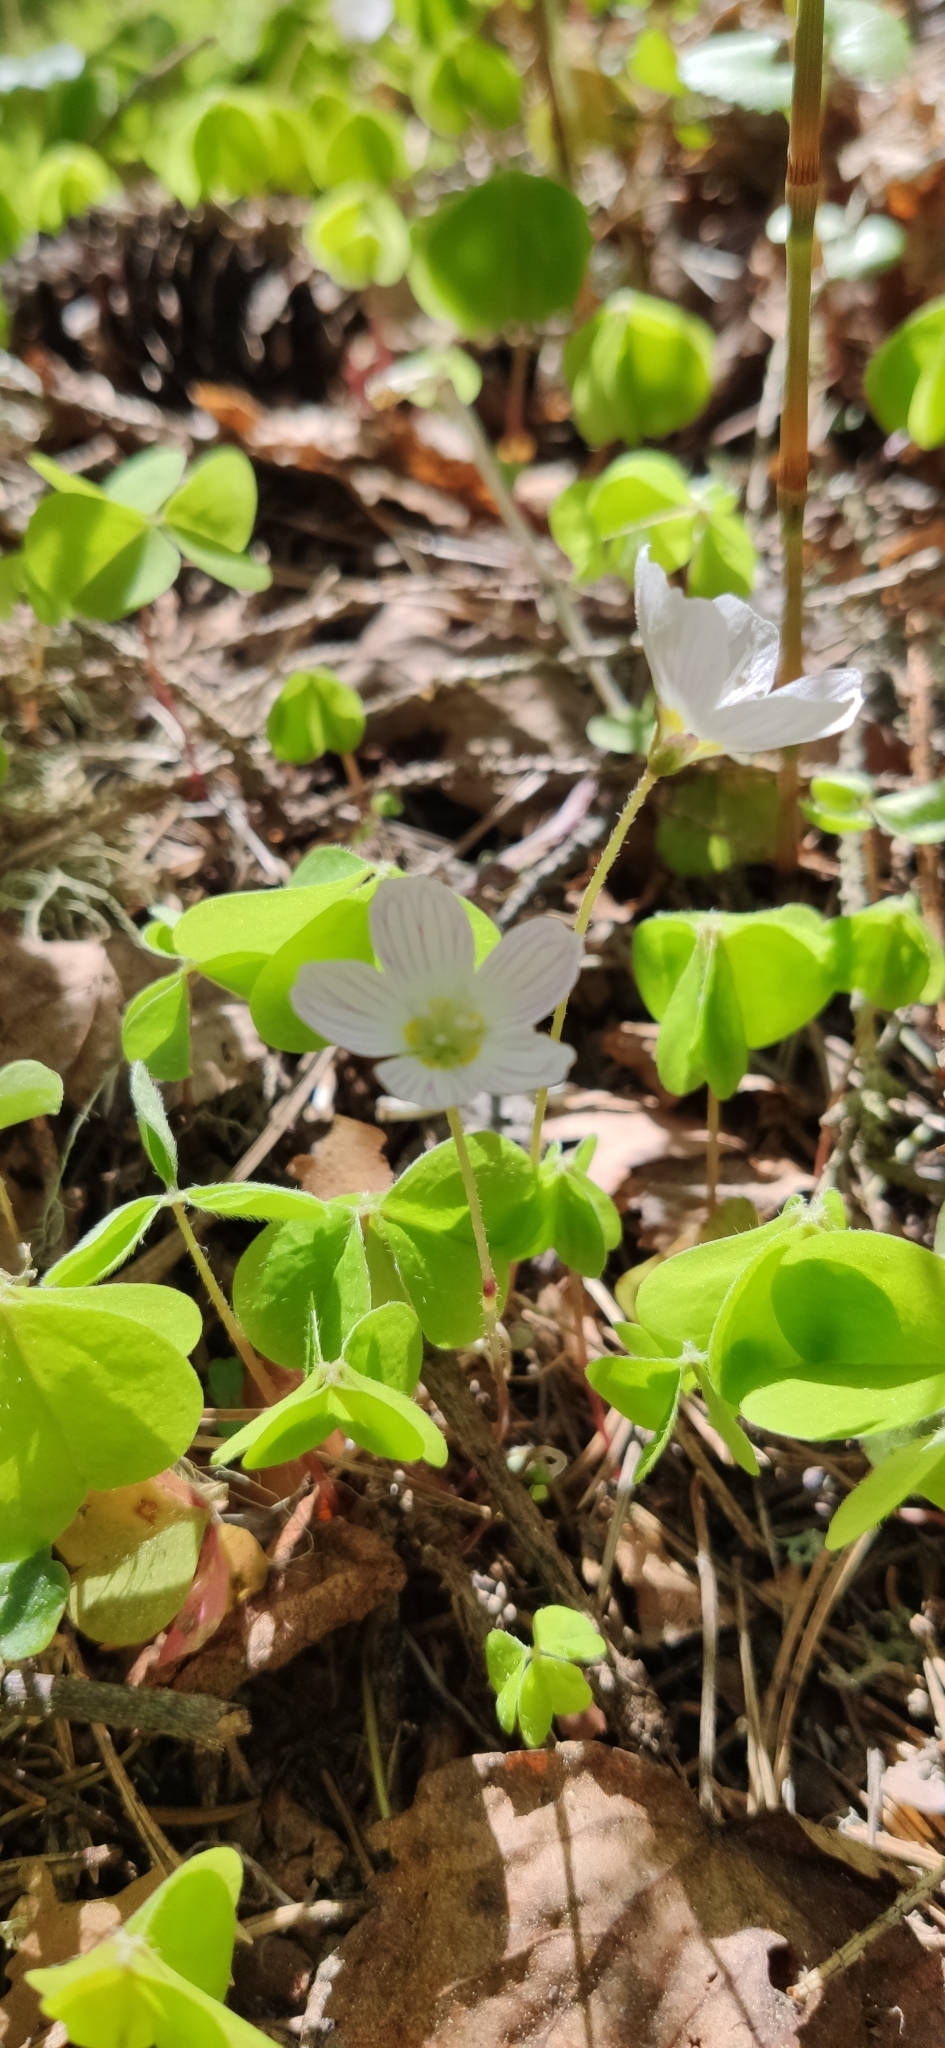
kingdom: Plantae
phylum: Tracheophyta
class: Magnoliopsida
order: Oxalidales
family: Oxalidaceae
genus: Oxalis
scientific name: Oxalis acetosella
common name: Wood-sorrel
